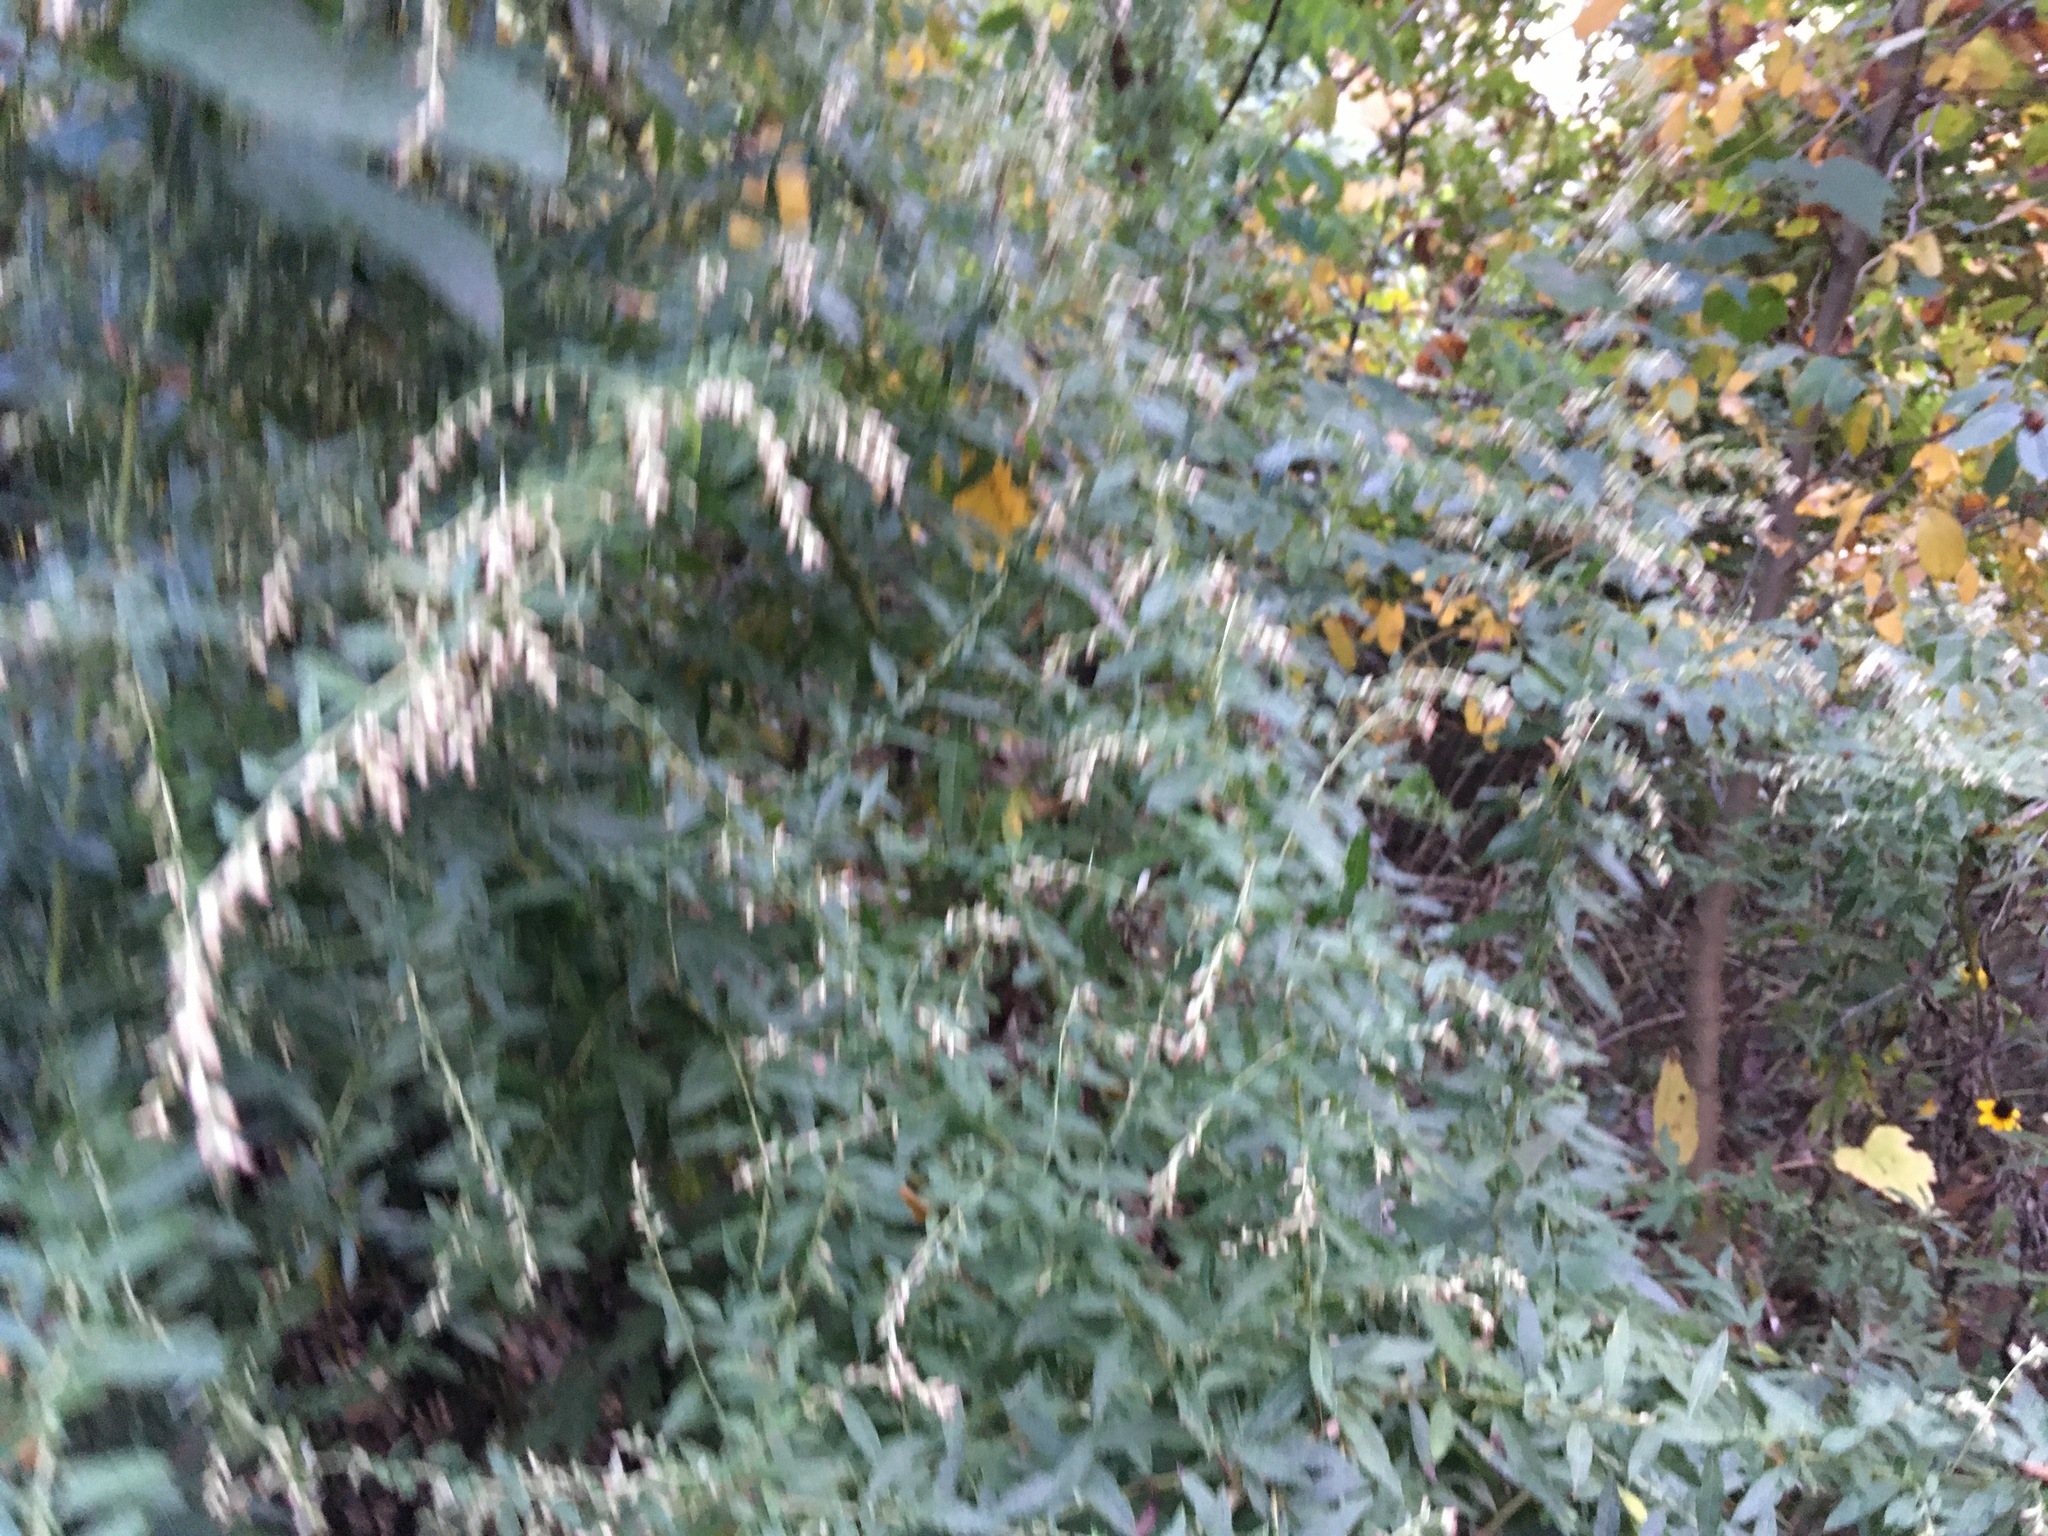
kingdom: Plantae
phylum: Tracheophyta
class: Magnoliopsida
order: Asterales
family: Asteraceae
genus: Artemisia
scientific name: Artemisia vulgaris
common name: Mugwort
